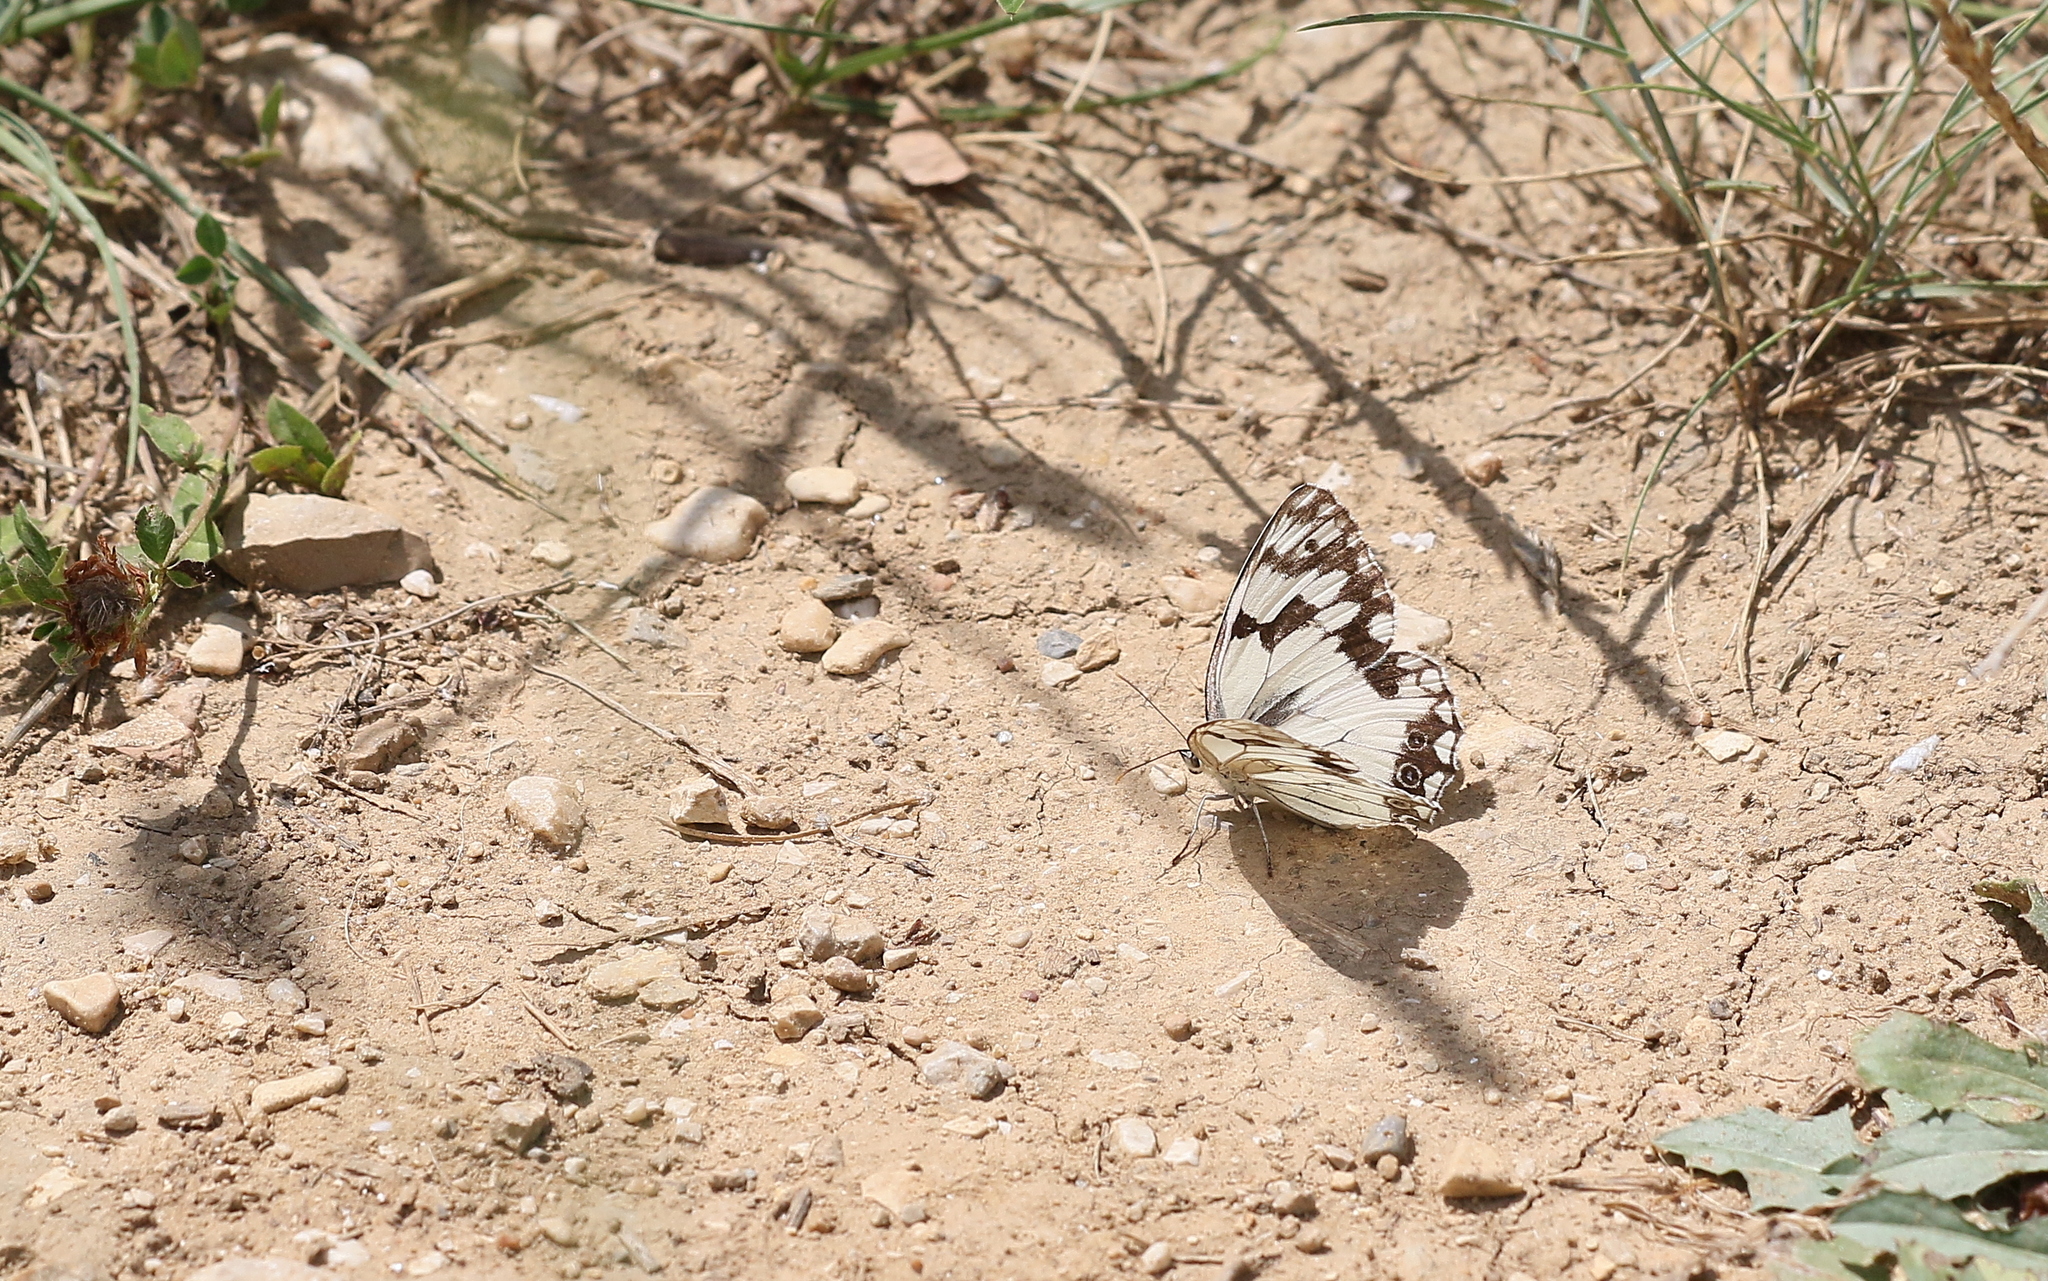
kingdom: Animalia
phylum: Arthropoda
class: Insecta
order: Lepidoptera
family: Nymphalidae
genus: Melanargia
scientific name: Melanargia lachesis
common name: Iberian marbled white
